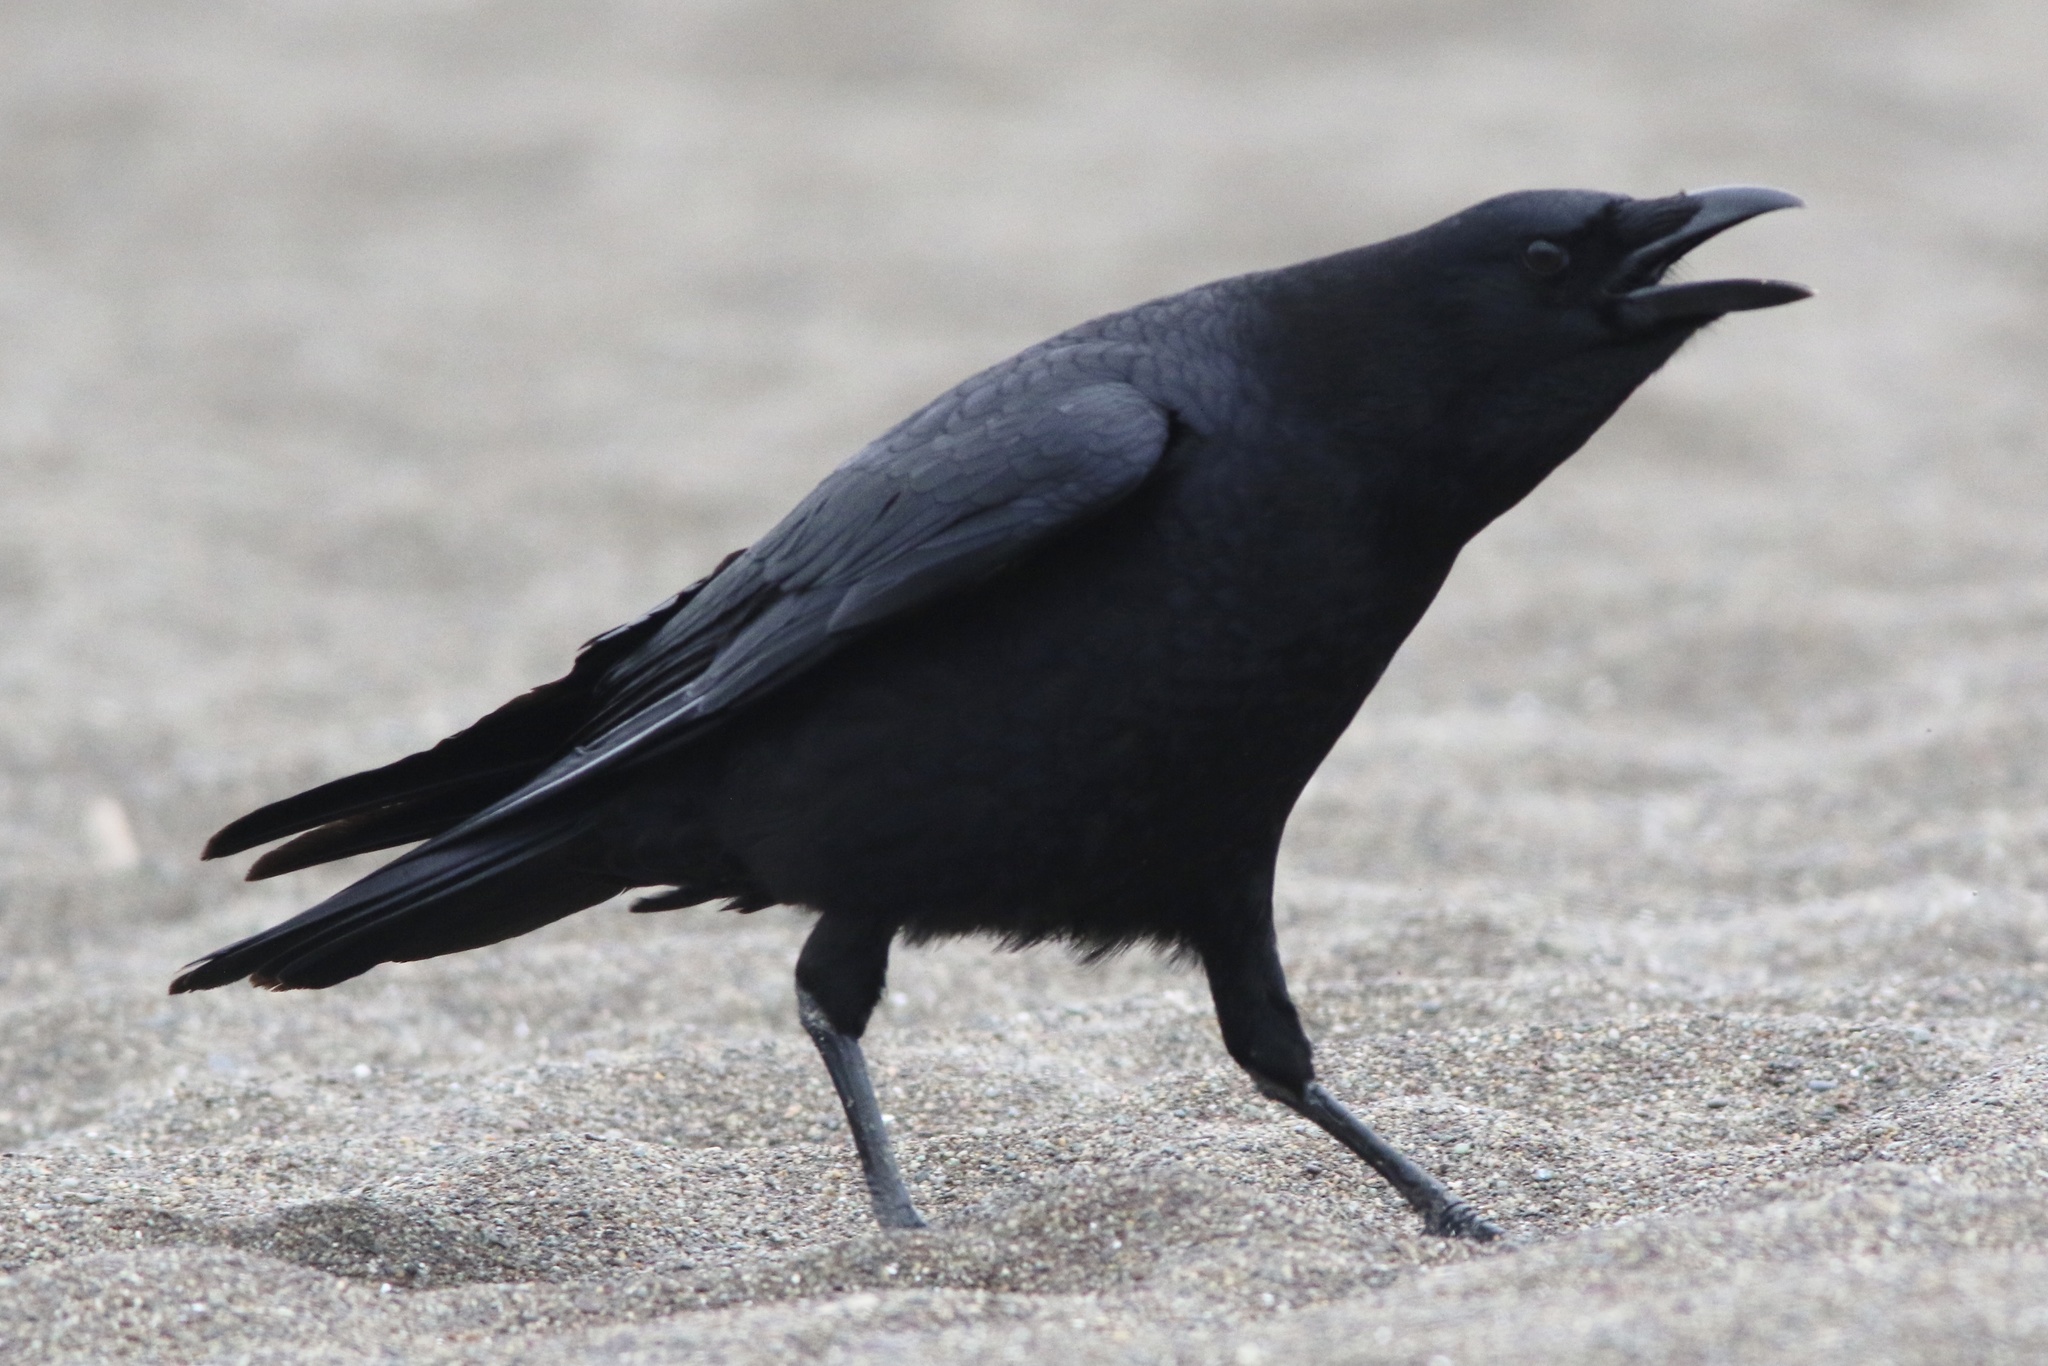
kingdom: Animalia
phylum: Chordata
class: Aves
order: Passeriformes
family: Corvidae
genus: Corvus
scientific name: Corvus brachyrhynchos
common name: American crow
